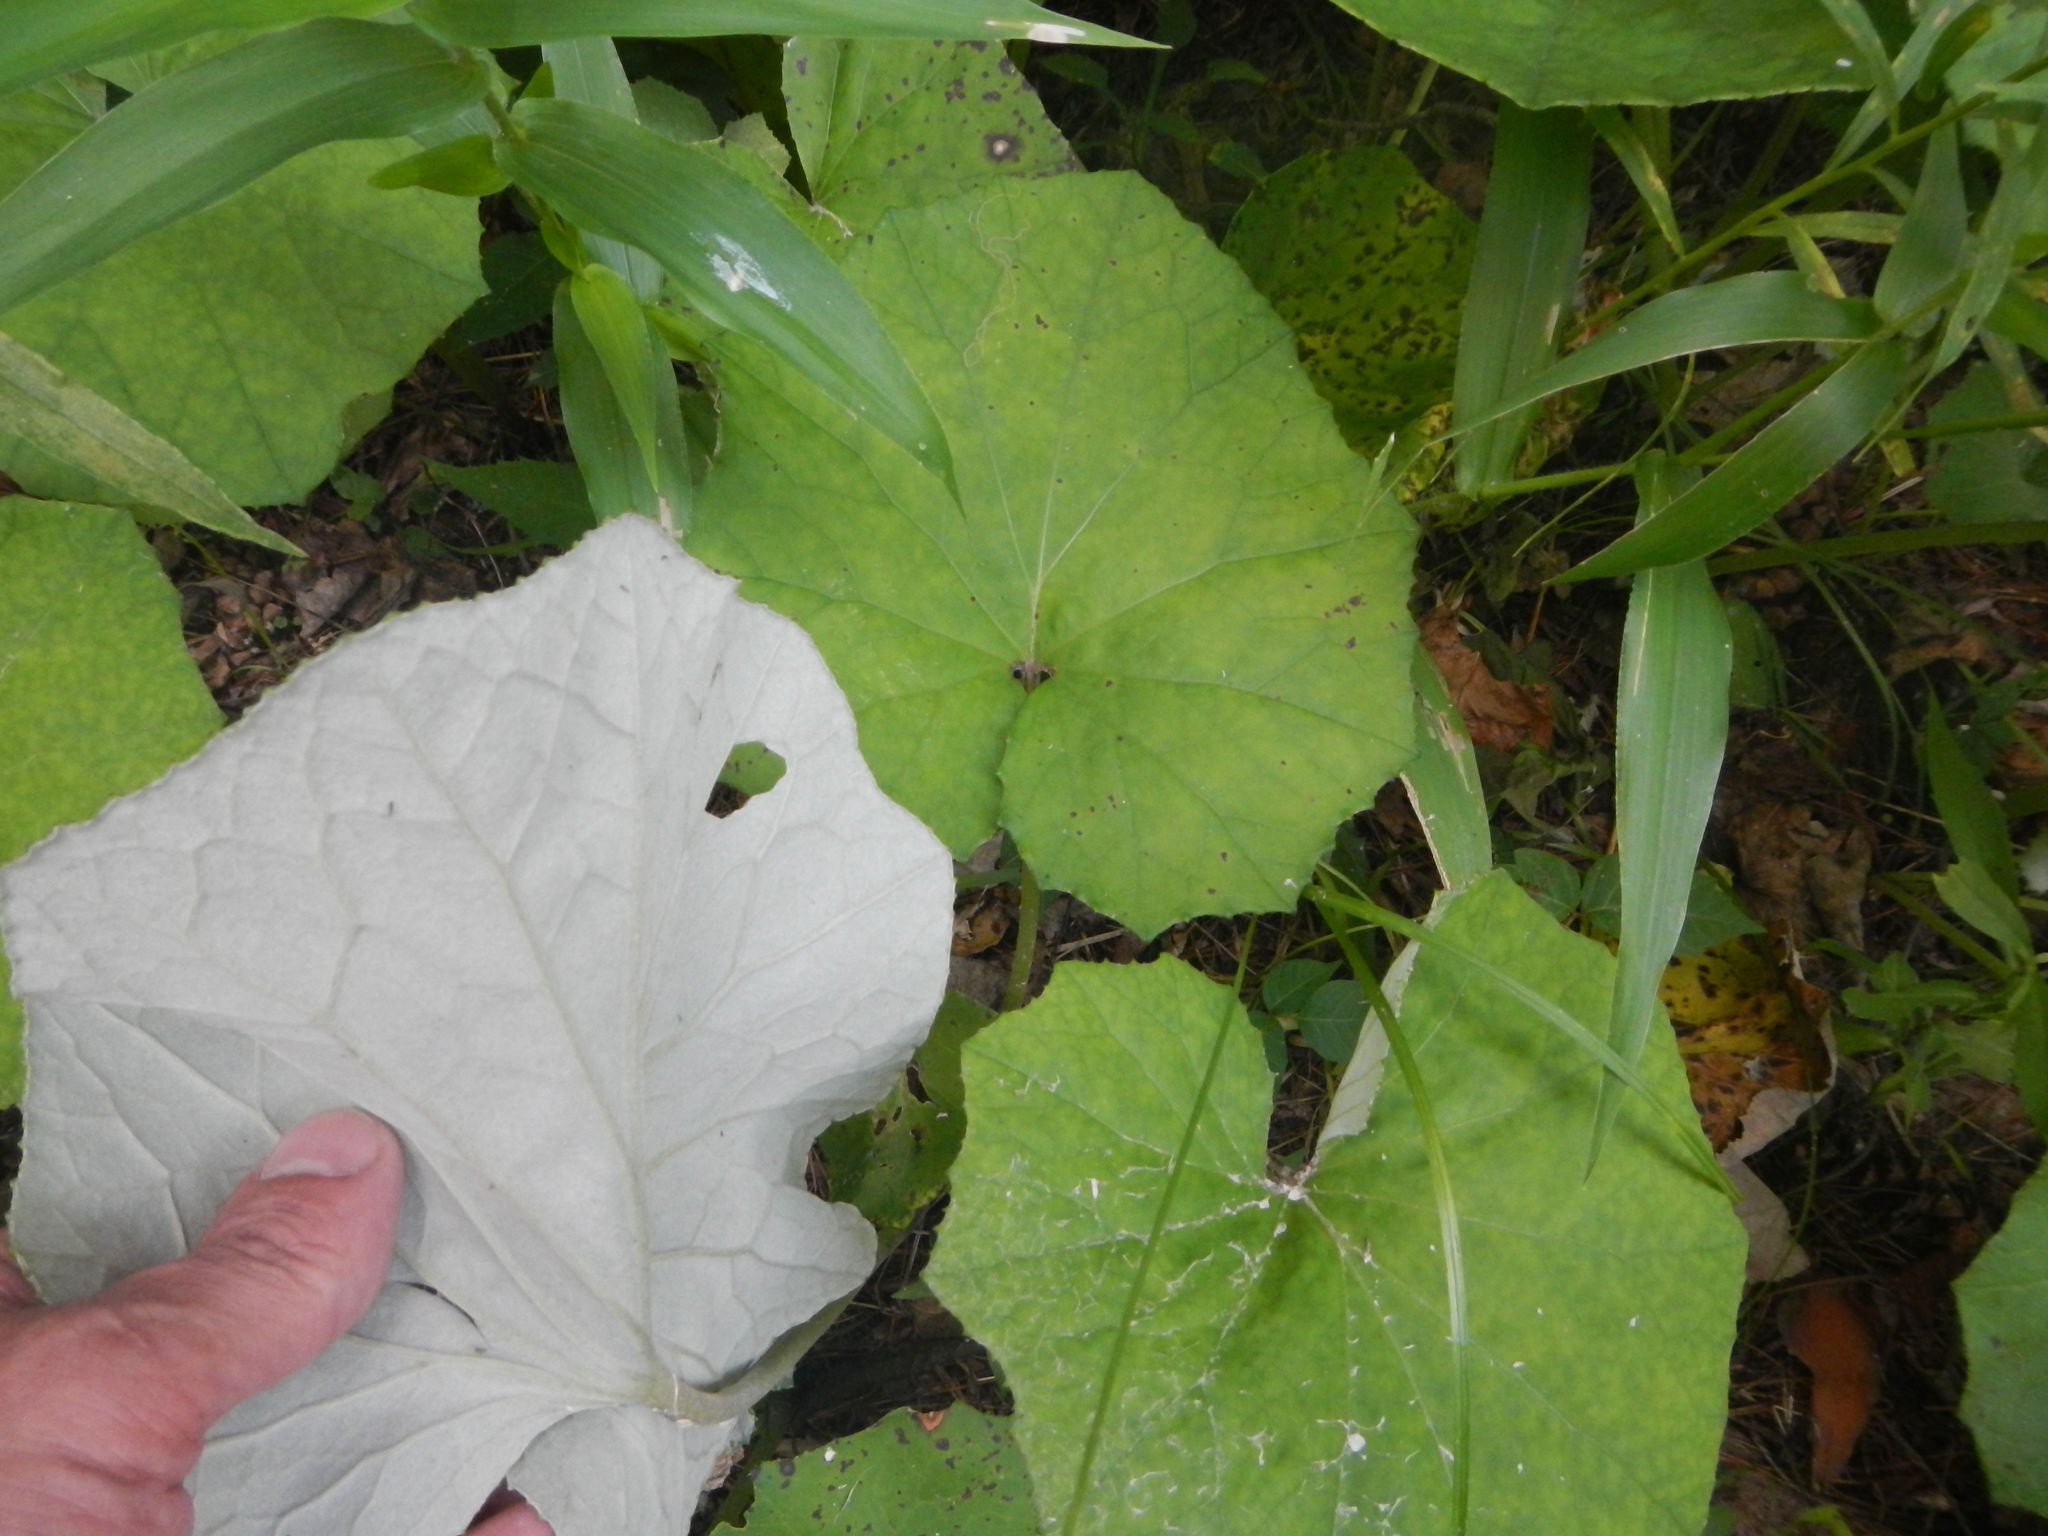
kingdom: Plantae
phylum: Tracheophyta
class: Magnoliopsida
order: Asterales
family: Asteraceae
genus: Tussilago
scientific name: Tussilago farfara
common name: Coltsfoot
